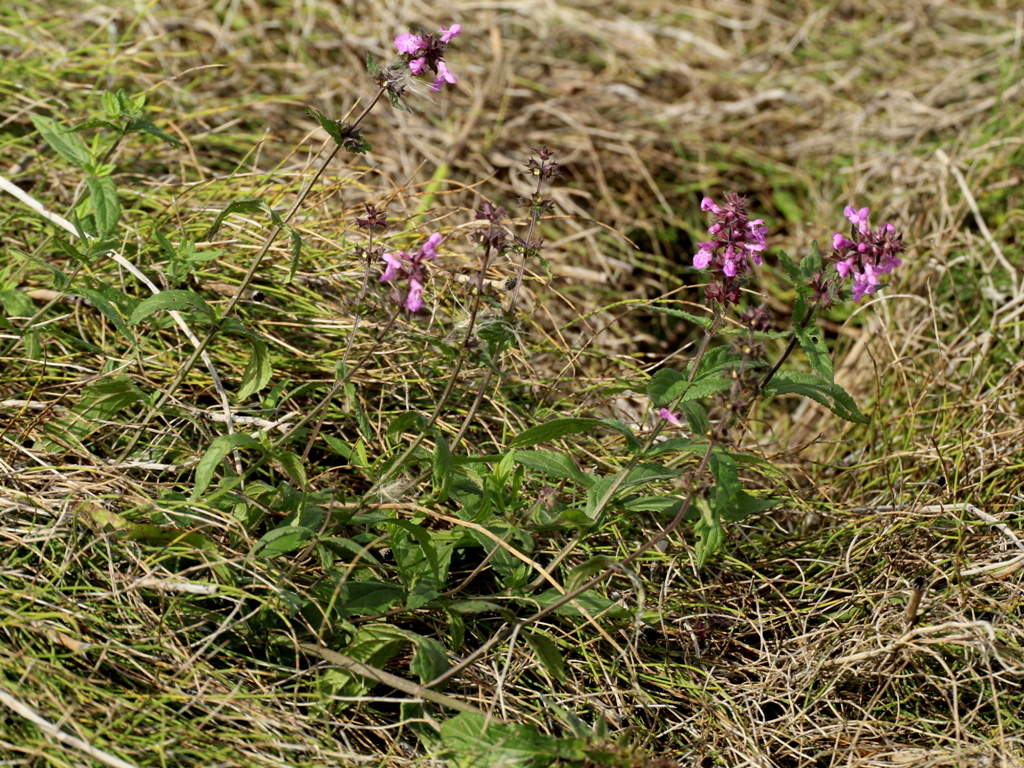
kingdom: Plantae
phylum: Tracheophyta
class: Magnoliopsida
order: Lamiales
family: Lamiaceae
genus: Stachys
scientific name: Stachys palustris
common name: Marsh woundwort
